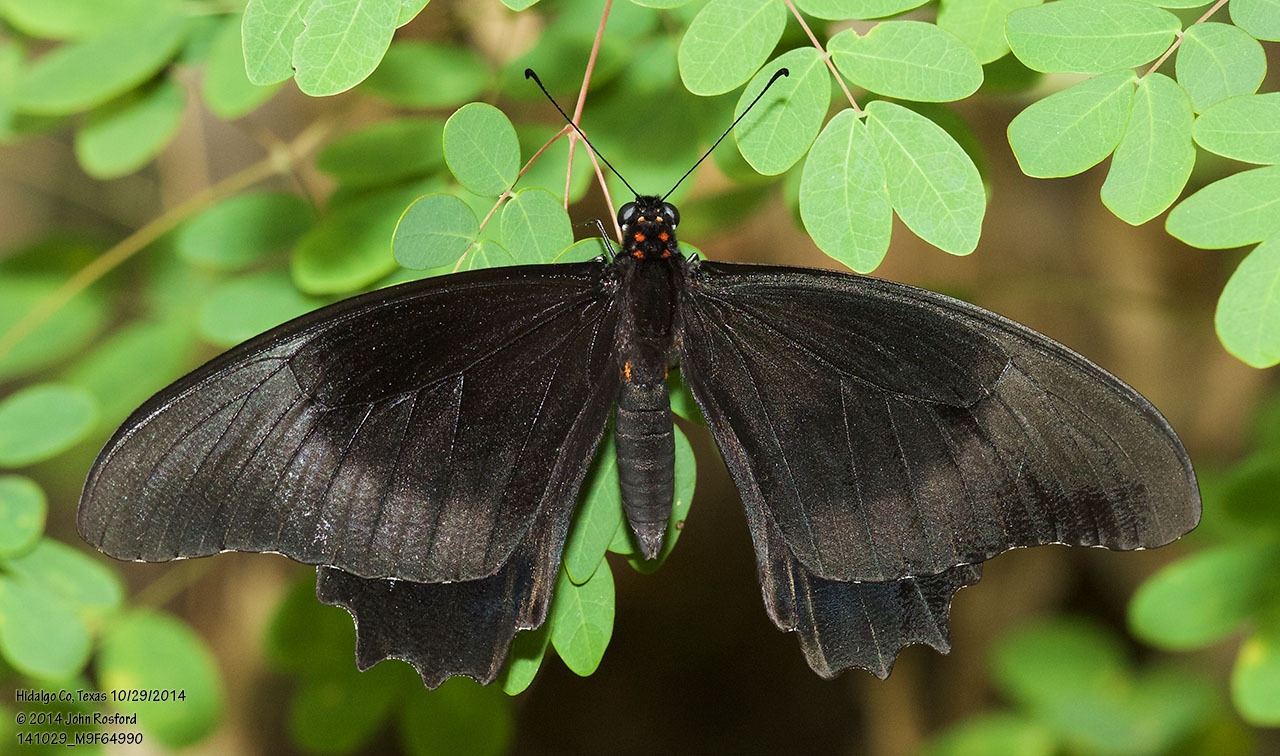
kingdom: Animalia
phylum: Arthropoda
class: Insecta
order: Lepidoptera
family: Papilionidae
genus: Papilio
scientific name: Papilio anchisiades
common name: Idaes swallowtail
